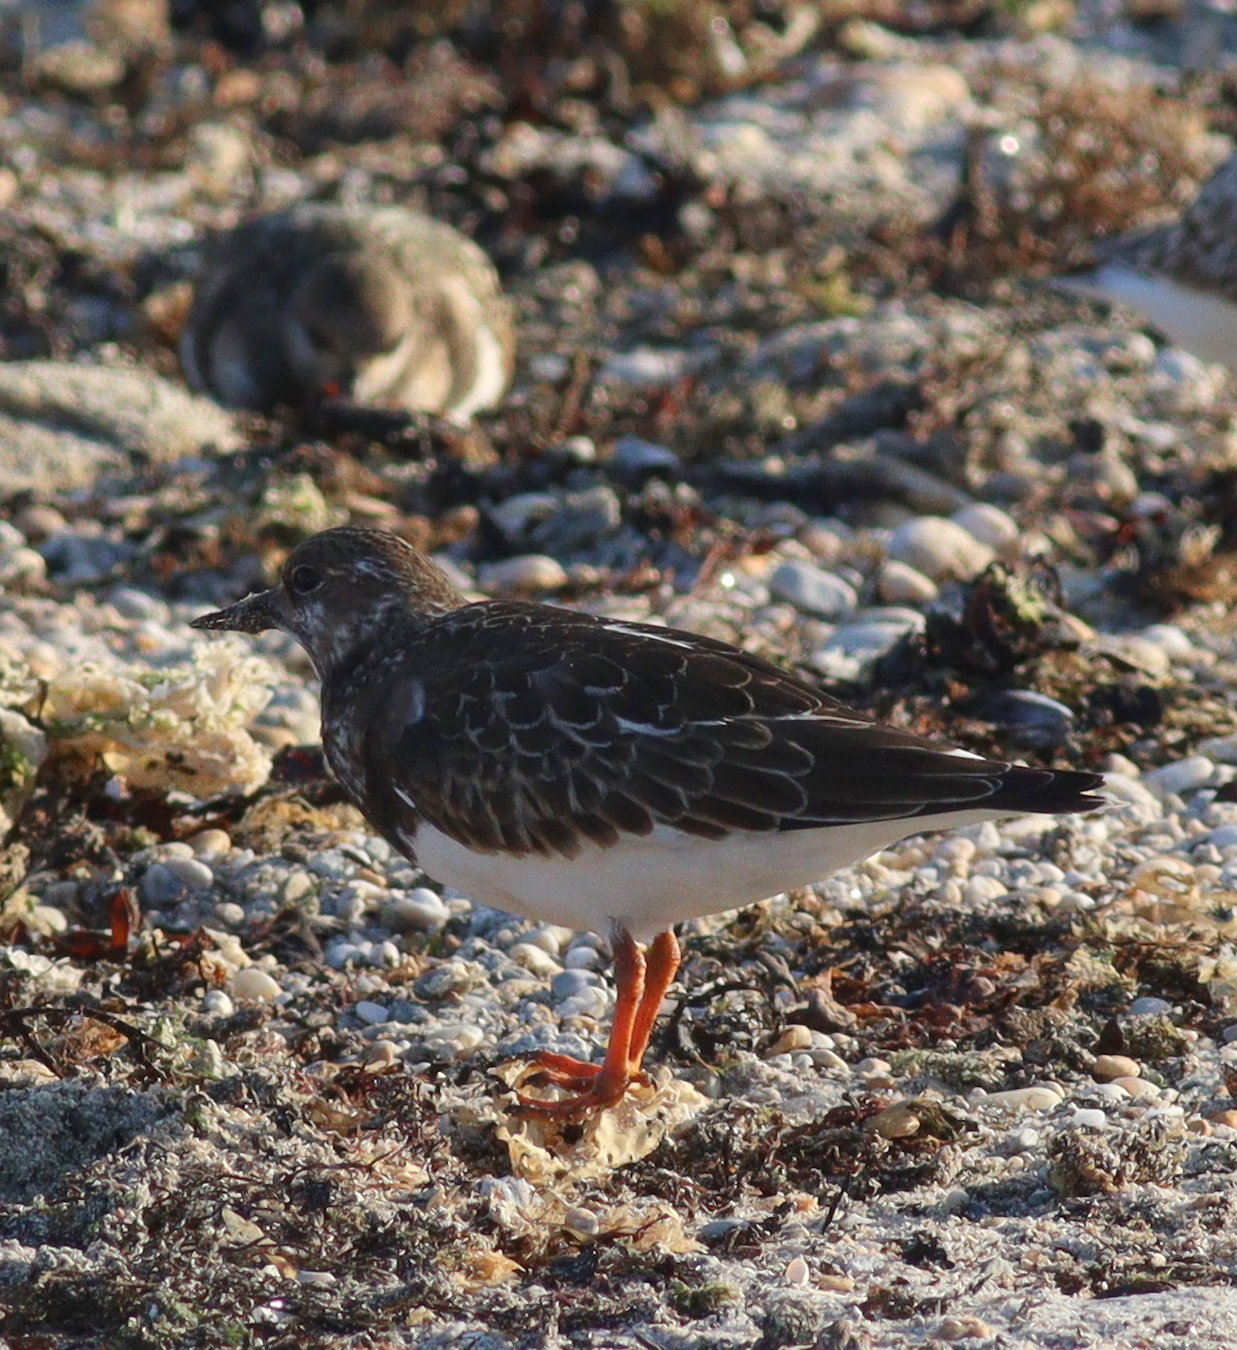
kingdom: Animalia
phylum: Chordata
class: Aves
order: Charadriiformes
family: Scolopacidae
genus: Arenaria
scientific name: Arenaria interpres
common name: Ruddy turnstone
